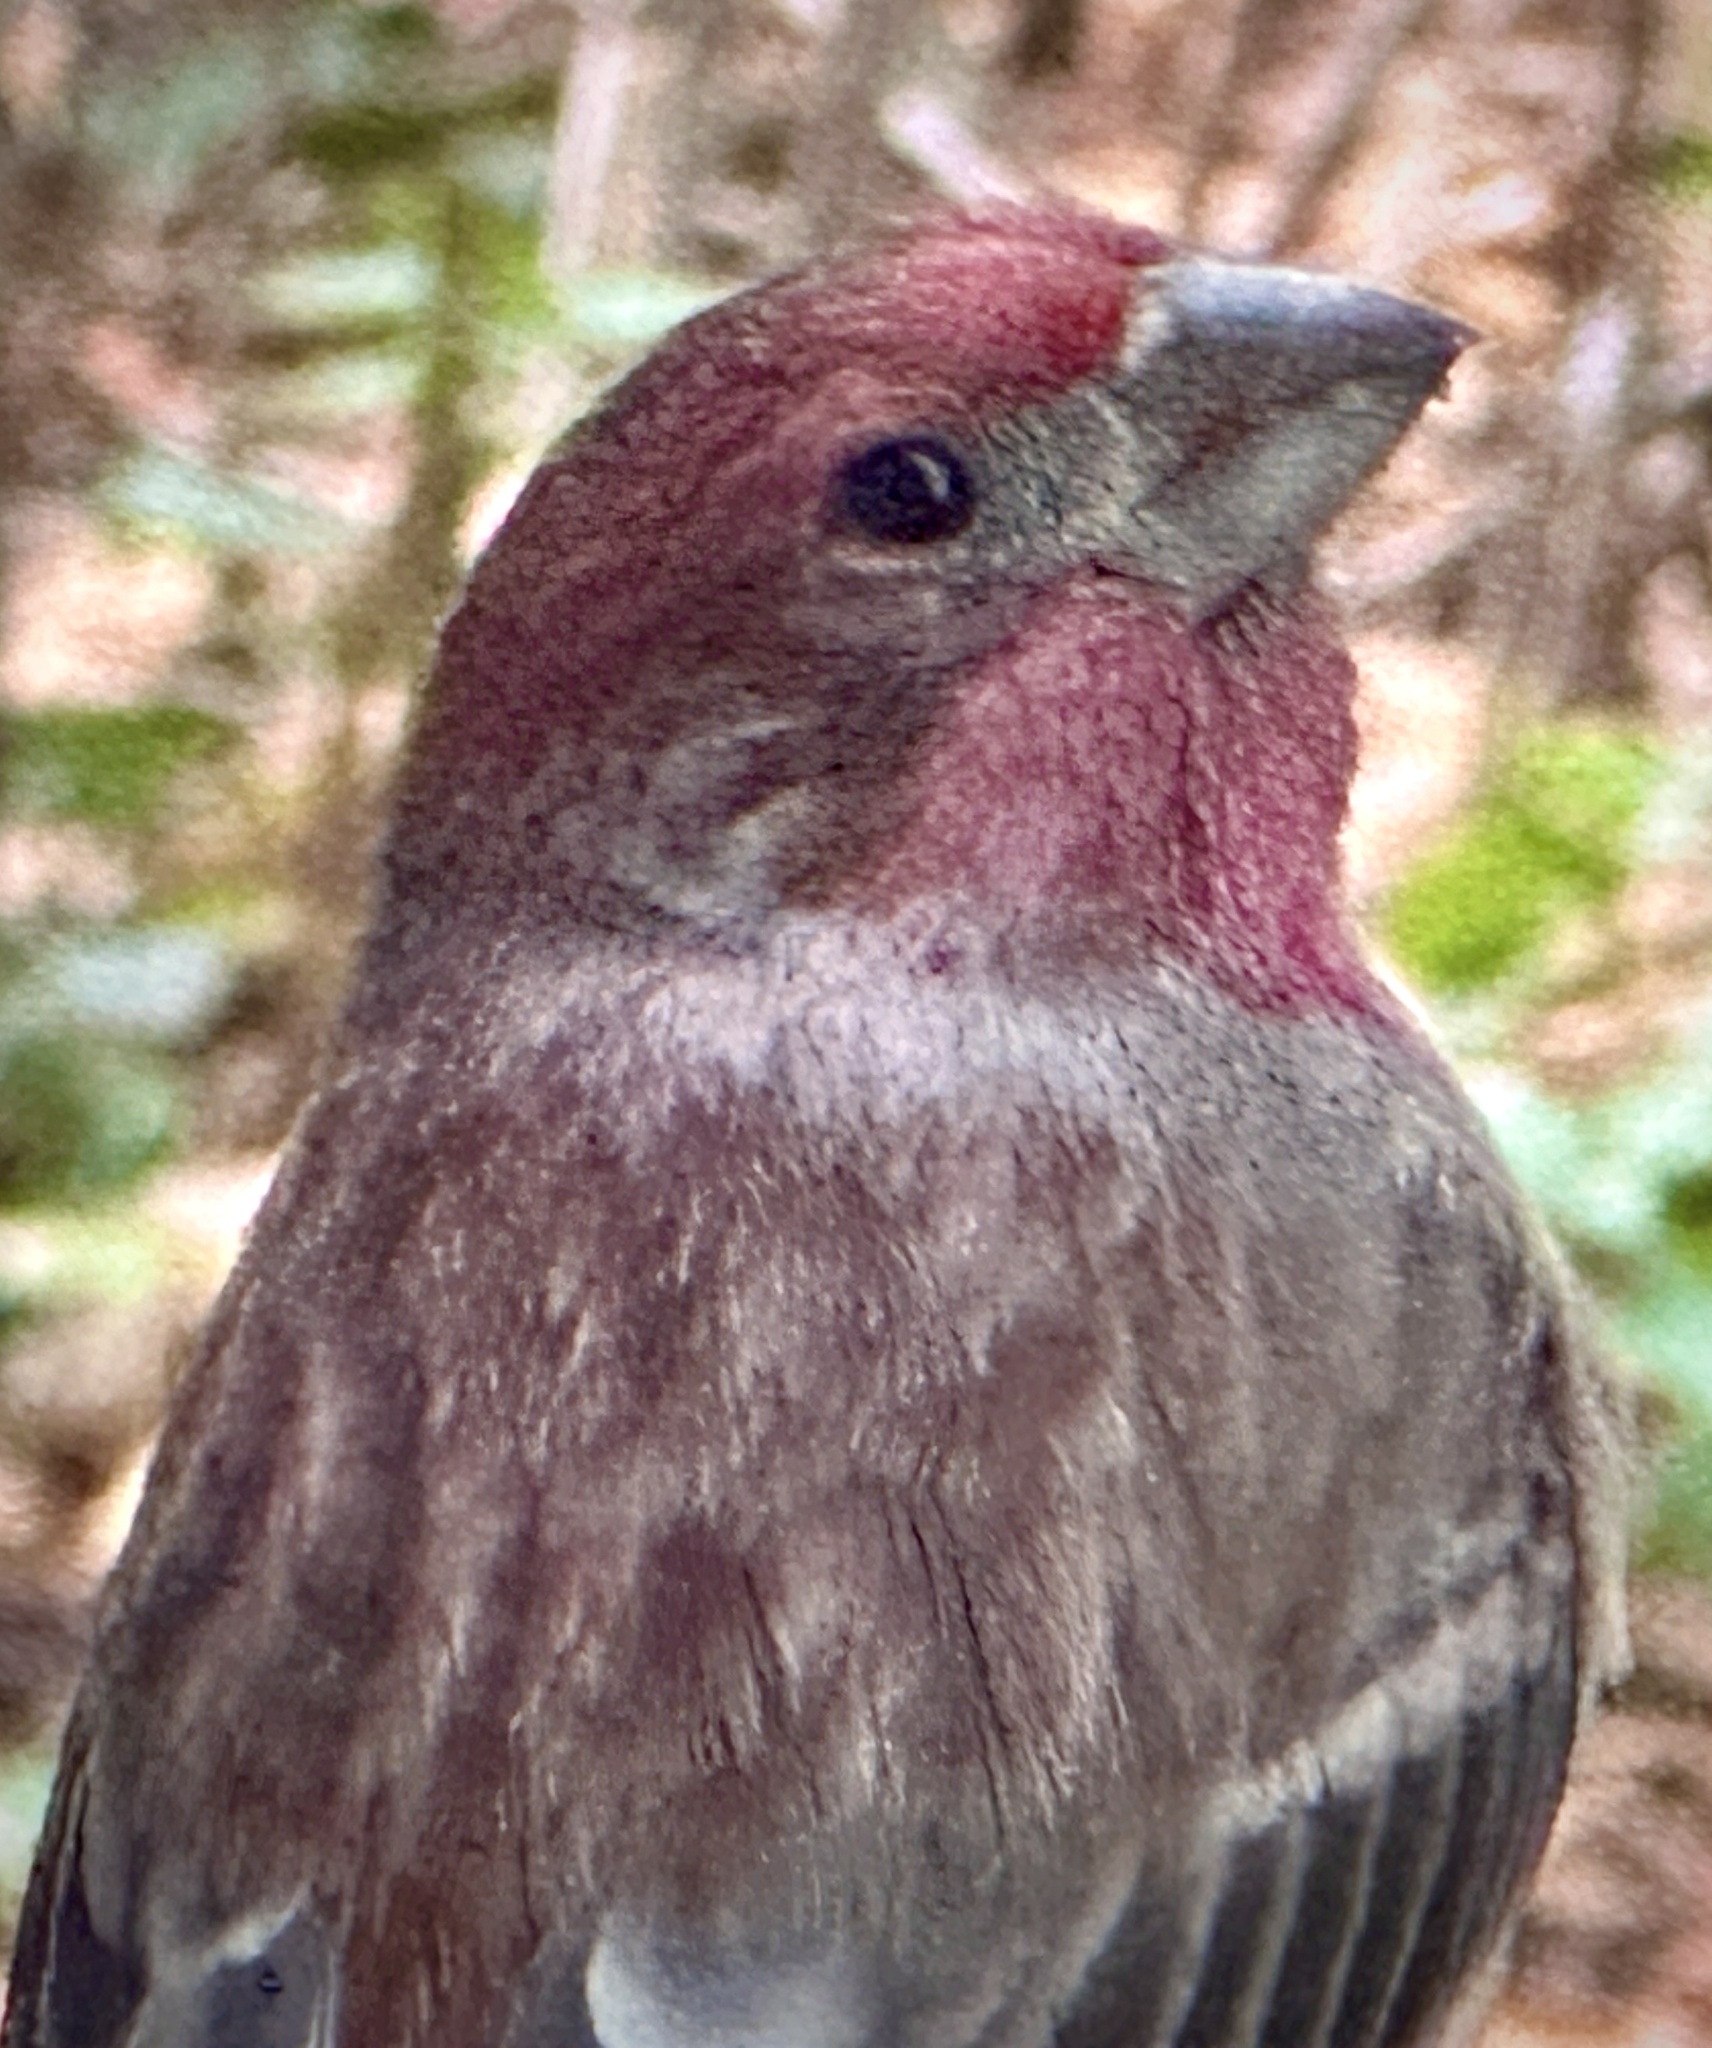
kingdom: Animalia
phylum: Chordata
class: Aves
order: Passeriformes
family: Fringillidae
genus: Haemorhous
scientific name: Haemorhous purpureus
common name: Purple finch
